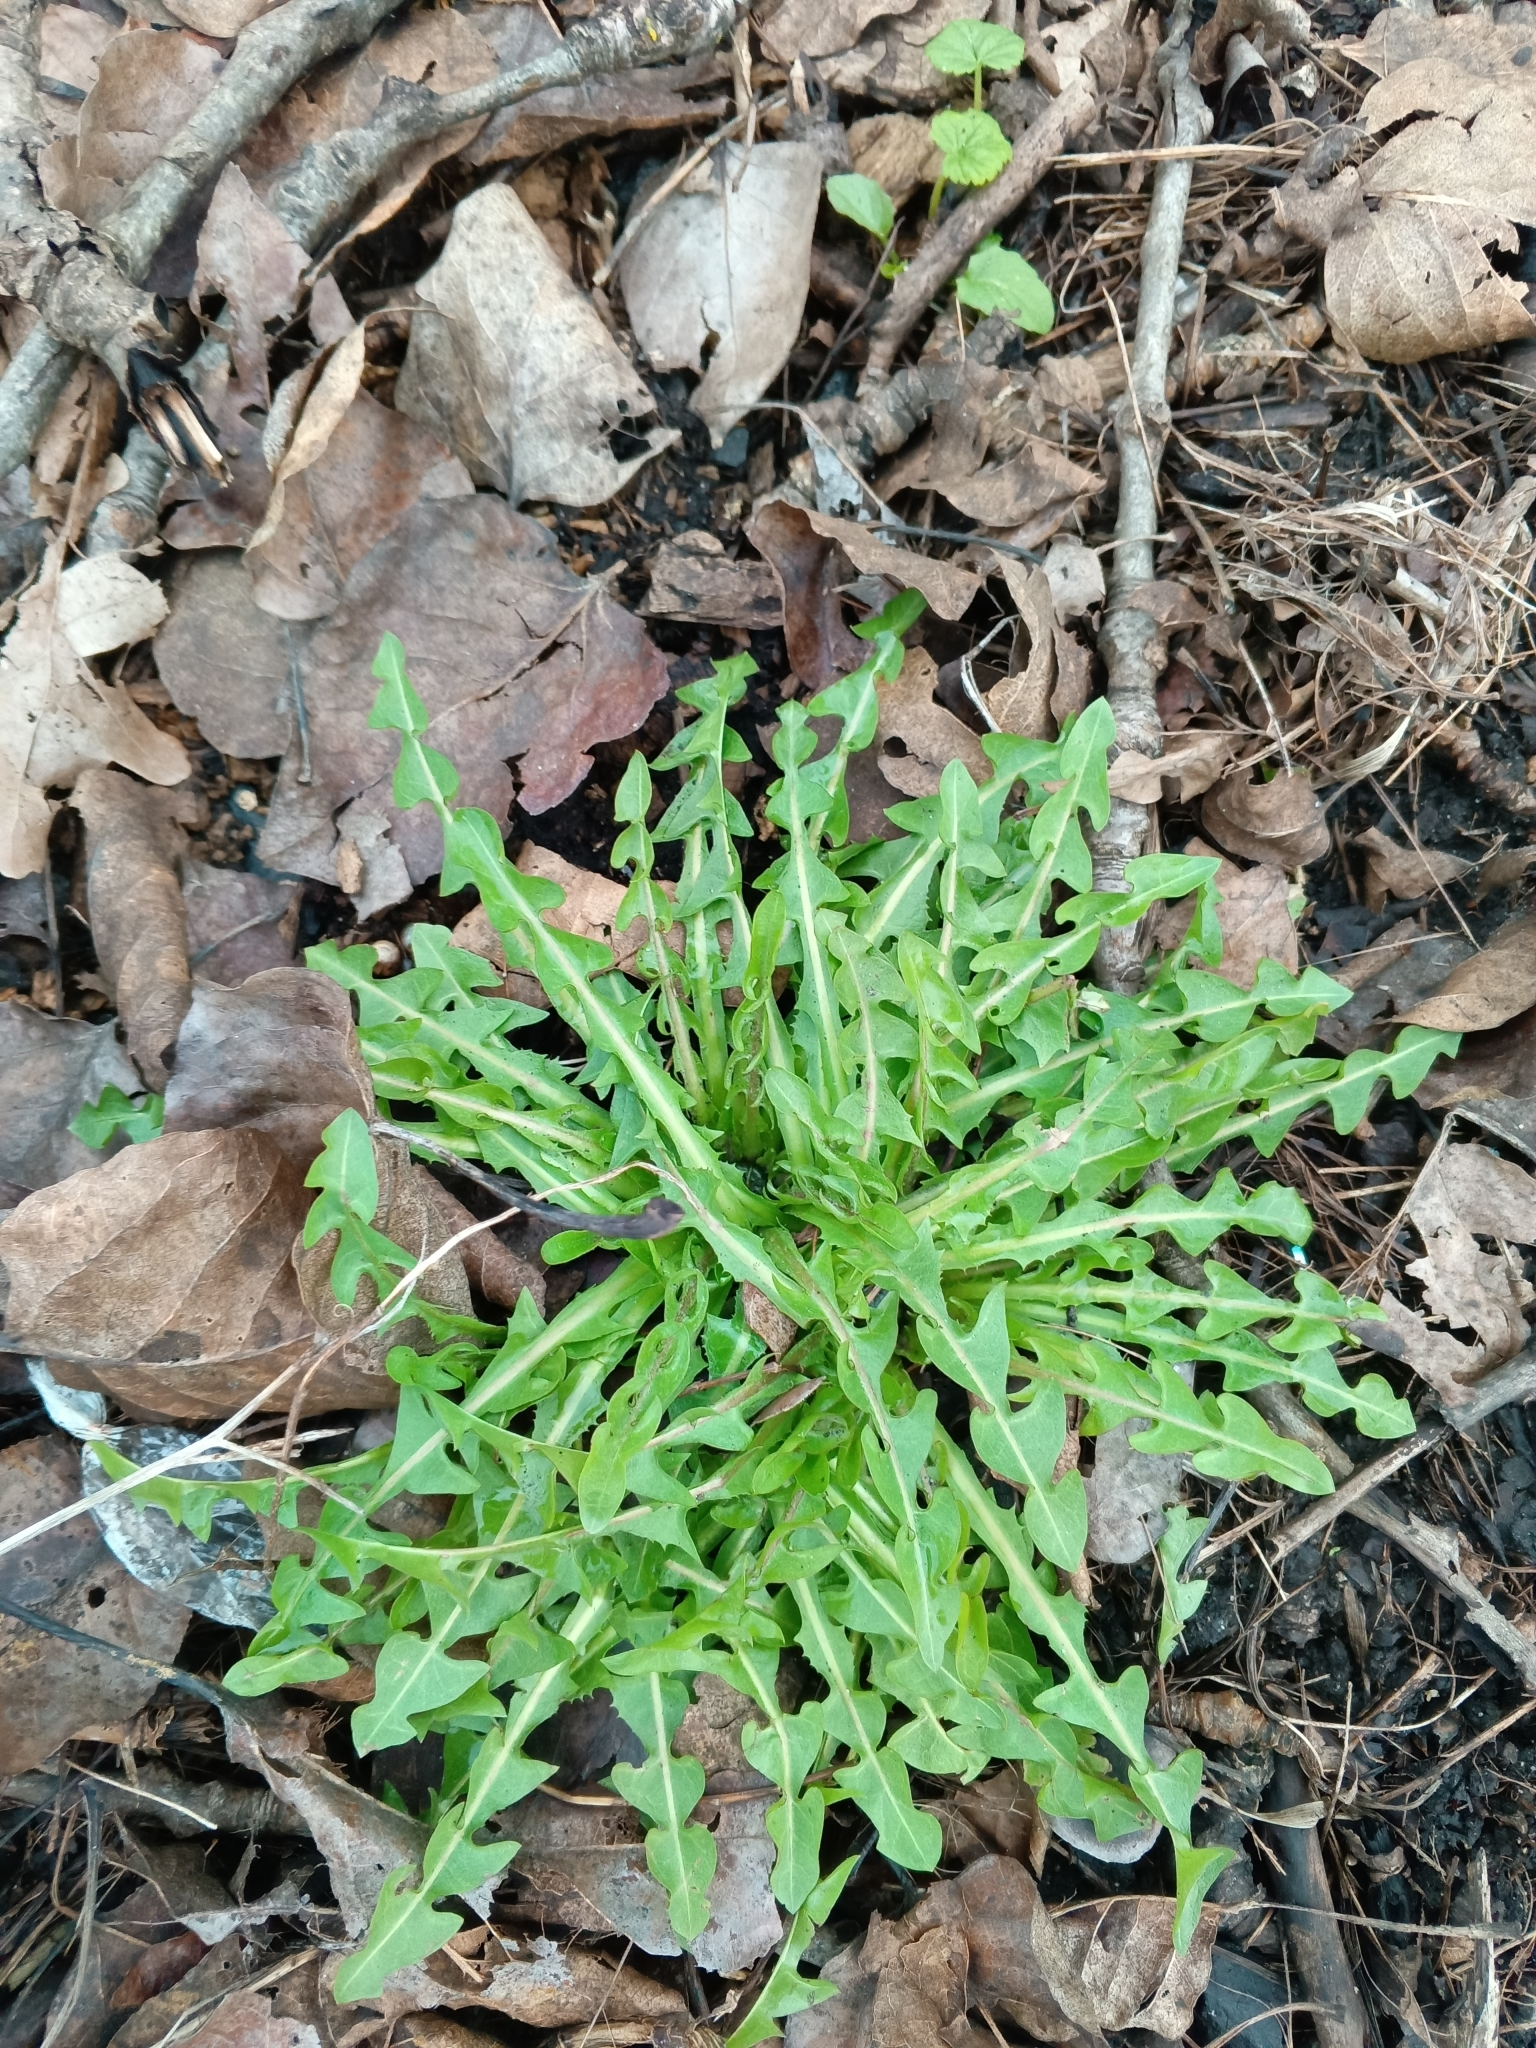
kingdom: Plantae
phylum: Tracheophyta
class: Magnoliopsida
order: Asterales
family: Asteraceae
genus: Taraxacum
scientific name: Taraxacum officinale
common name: Common dandelion
